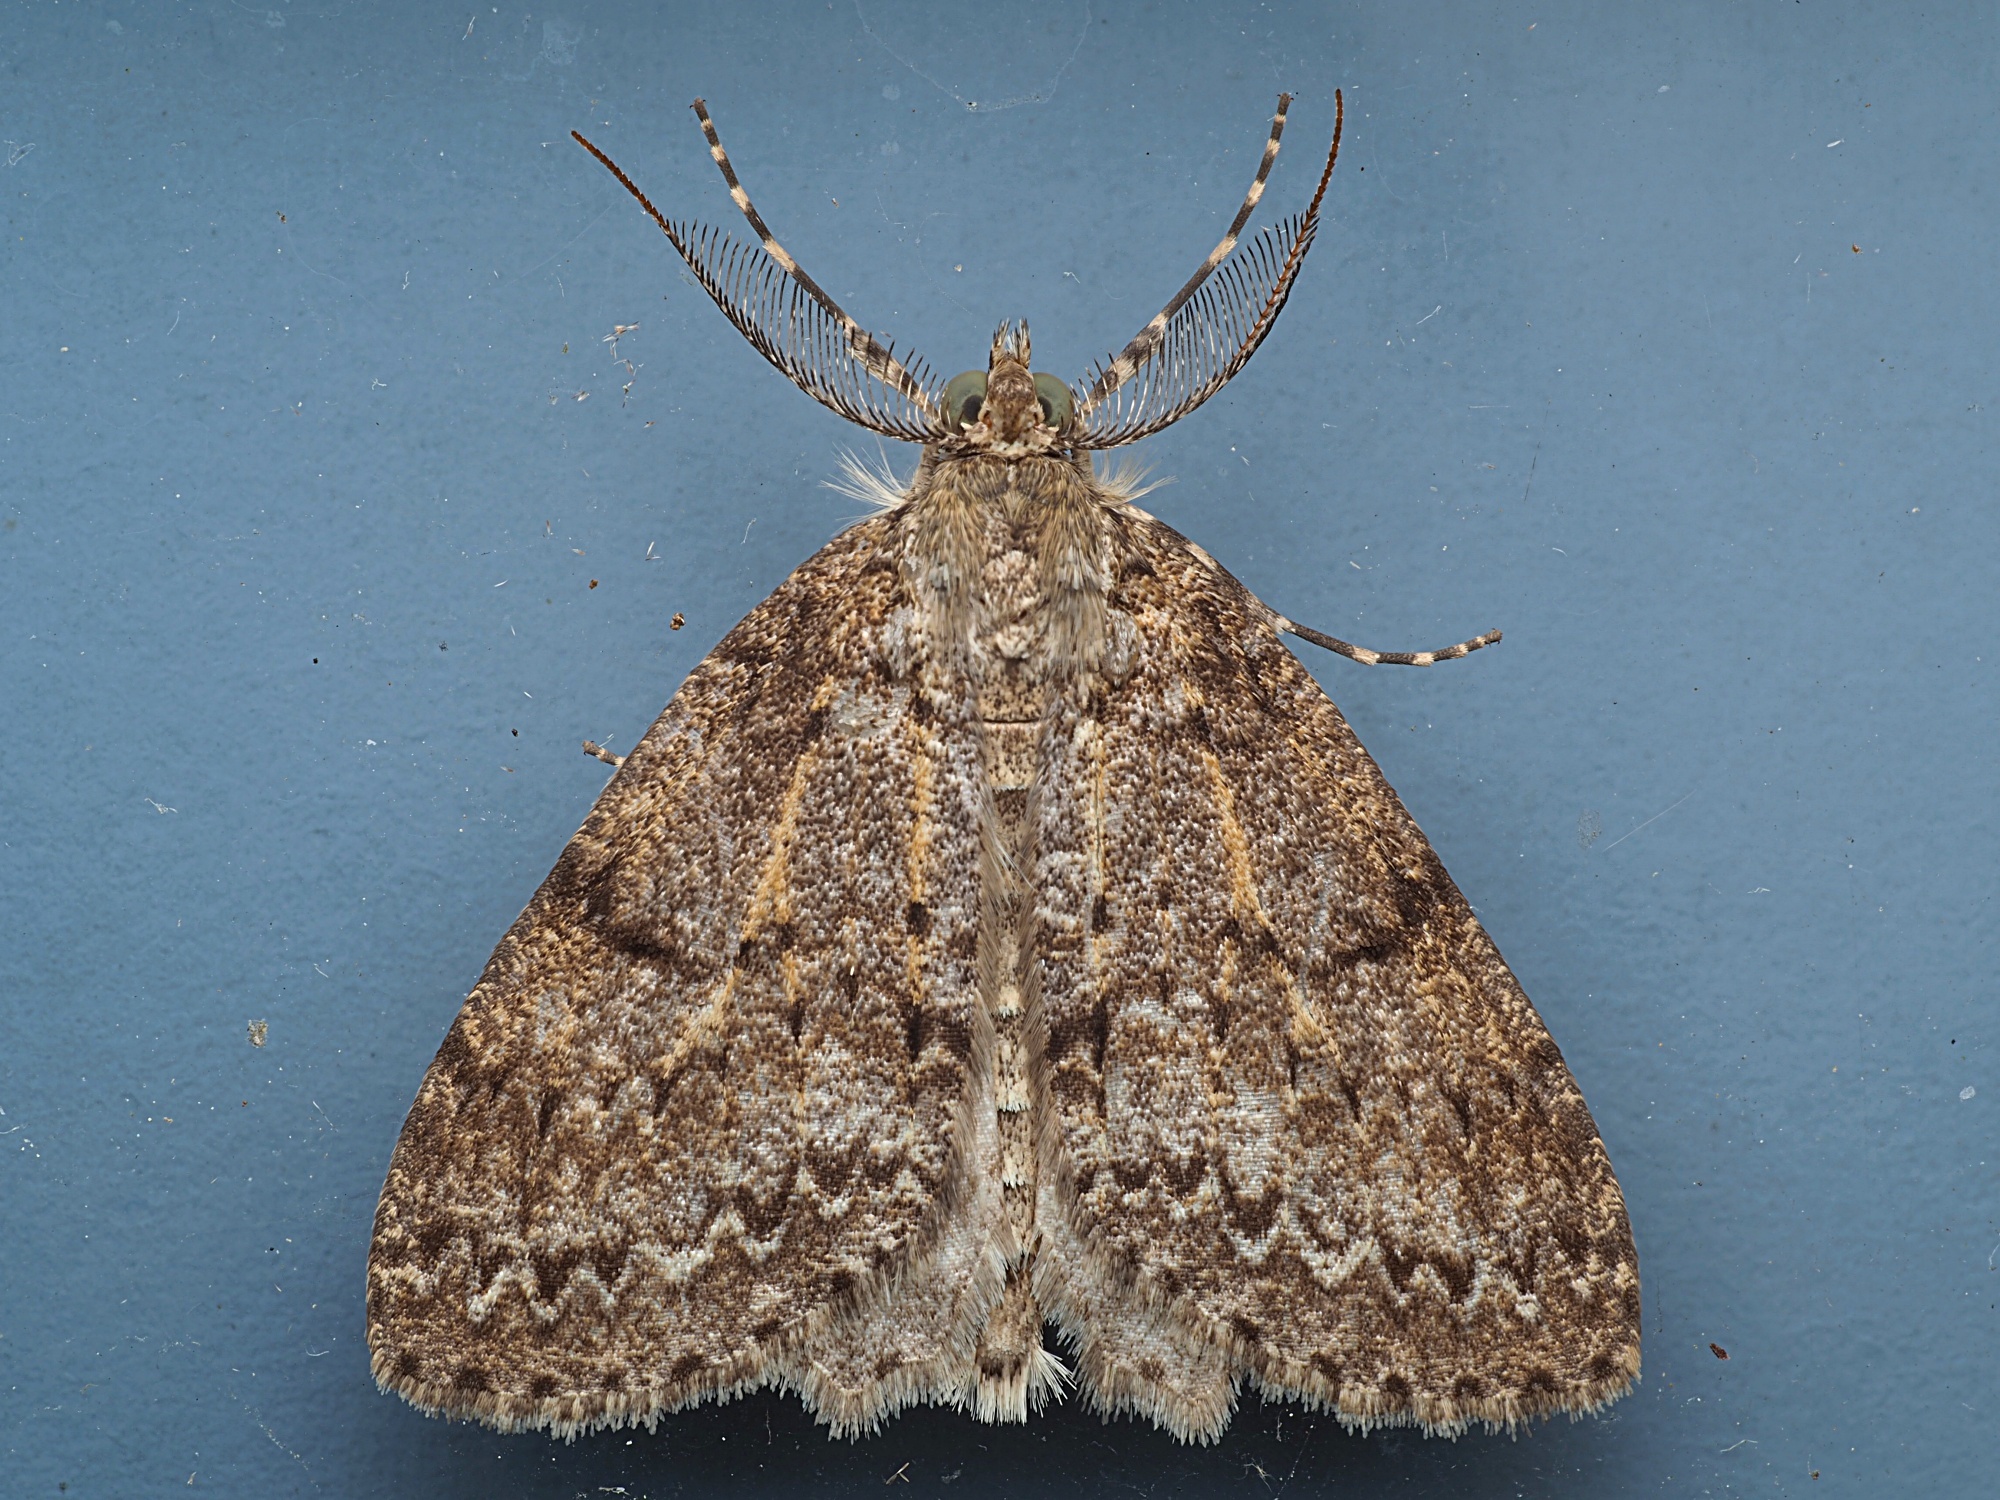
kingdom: Animalia
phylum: Arthropoda
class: Insecta
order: Lepidoptera
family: Geometridae
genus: Pseudocoremia
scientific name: Pseudocoremia fenerata
